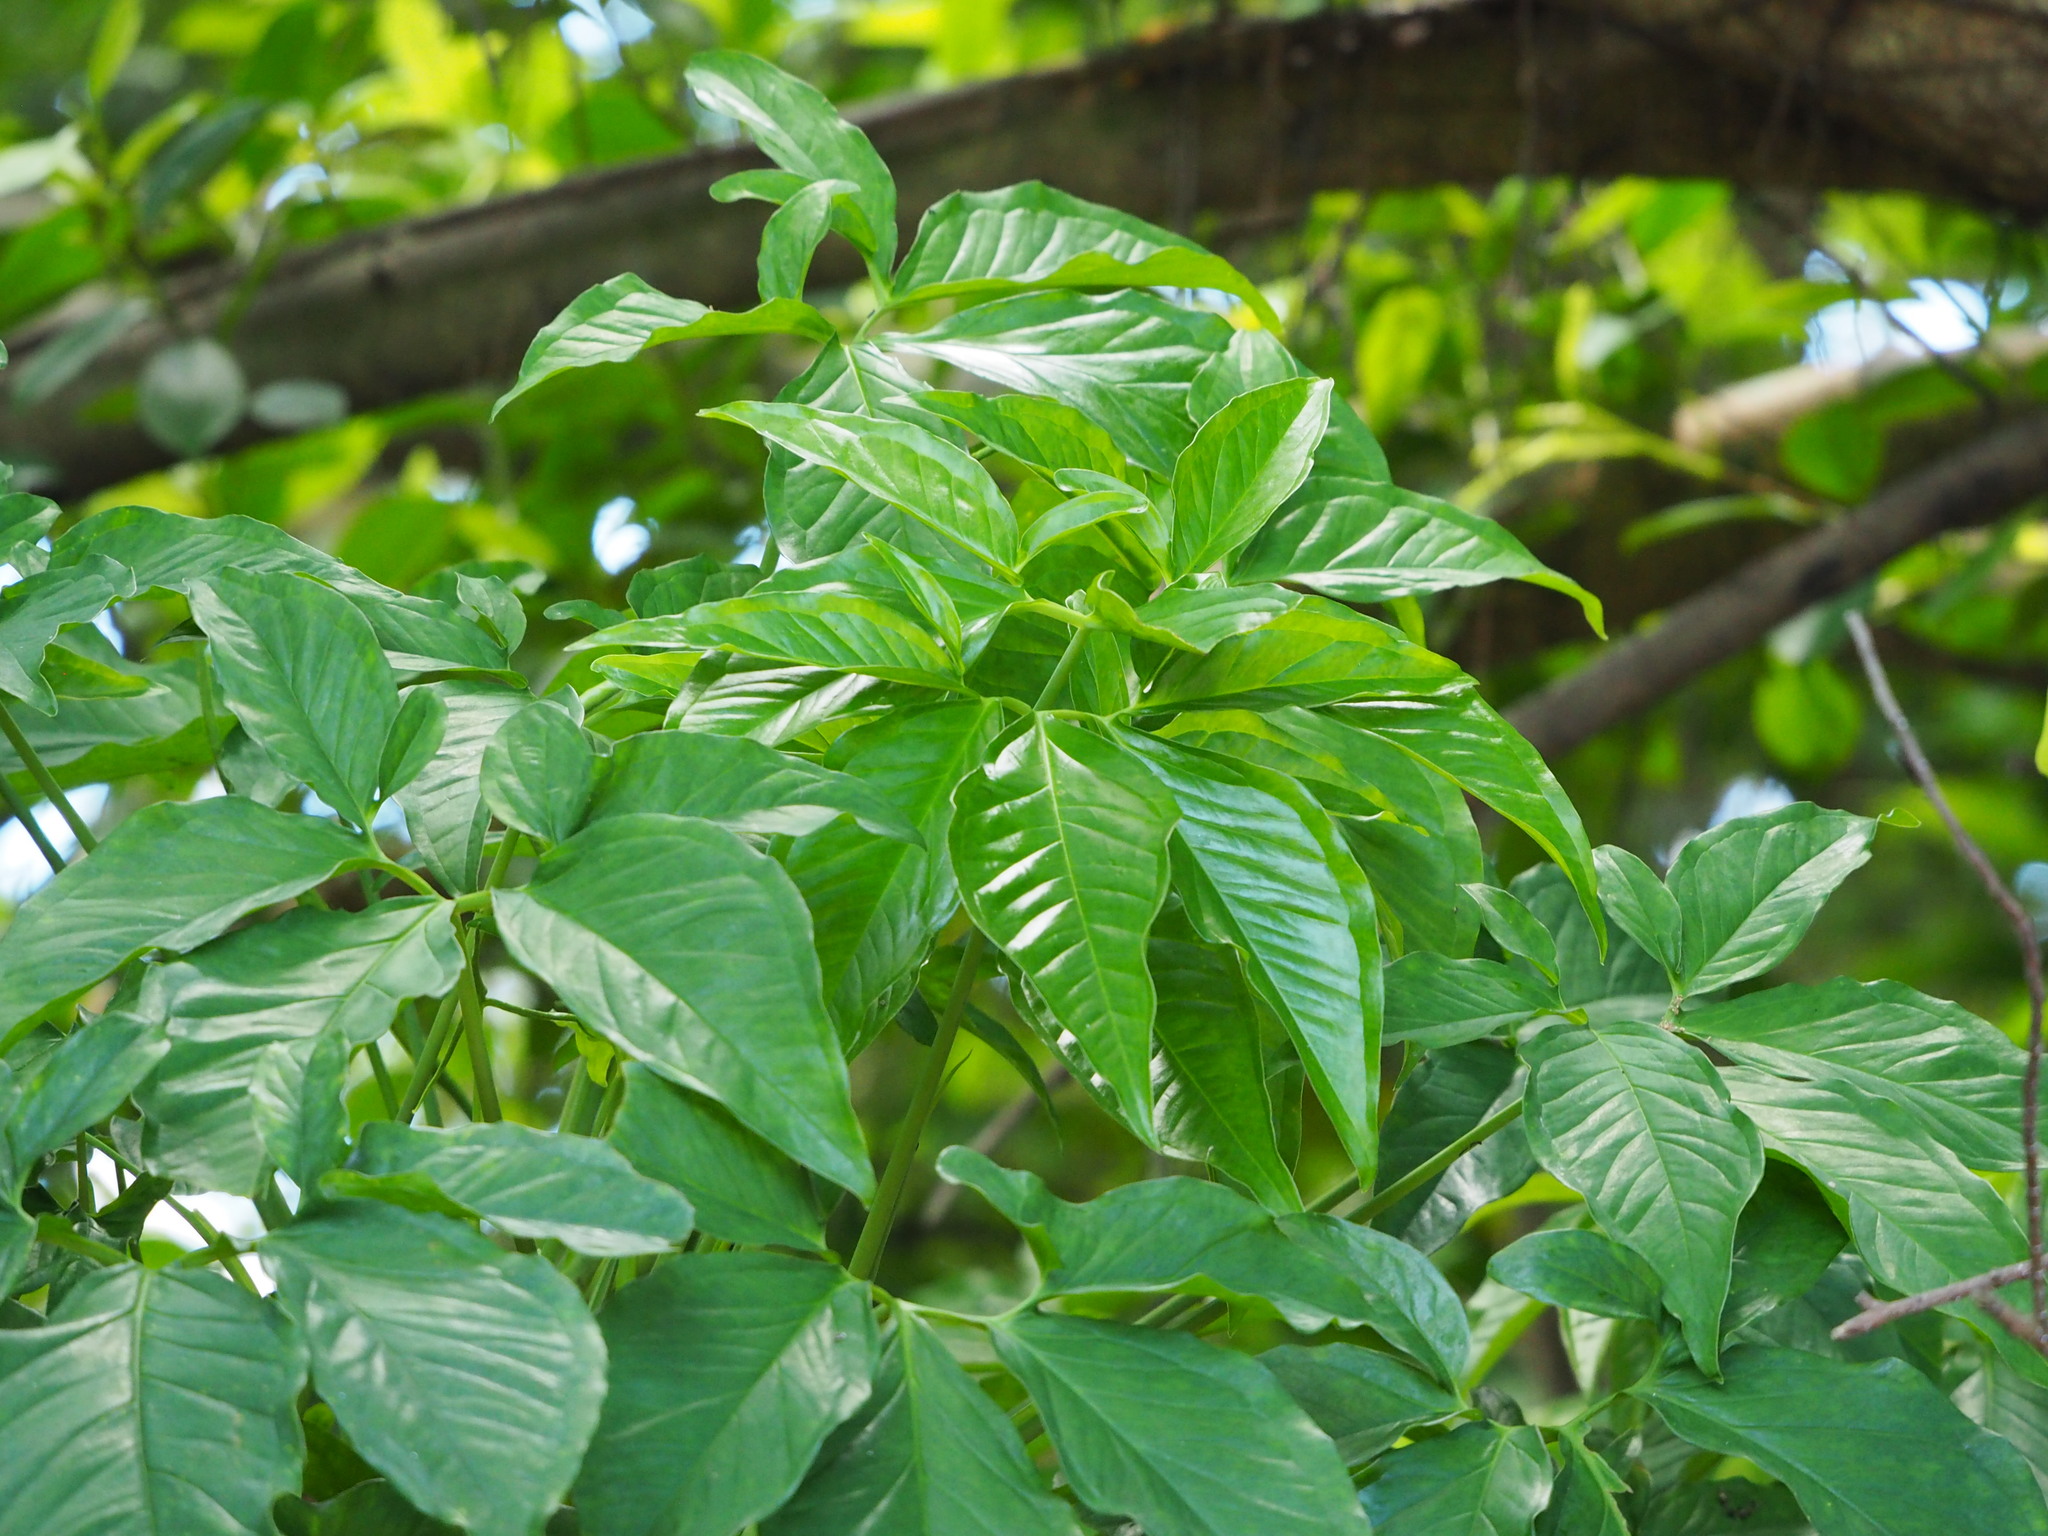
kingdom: Plantae
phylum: Tracheophyta
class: Liliopsida
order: Alismatales
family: Araceae
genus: Syngonium
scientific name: Syngonium podophyllum
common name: American evergreen
